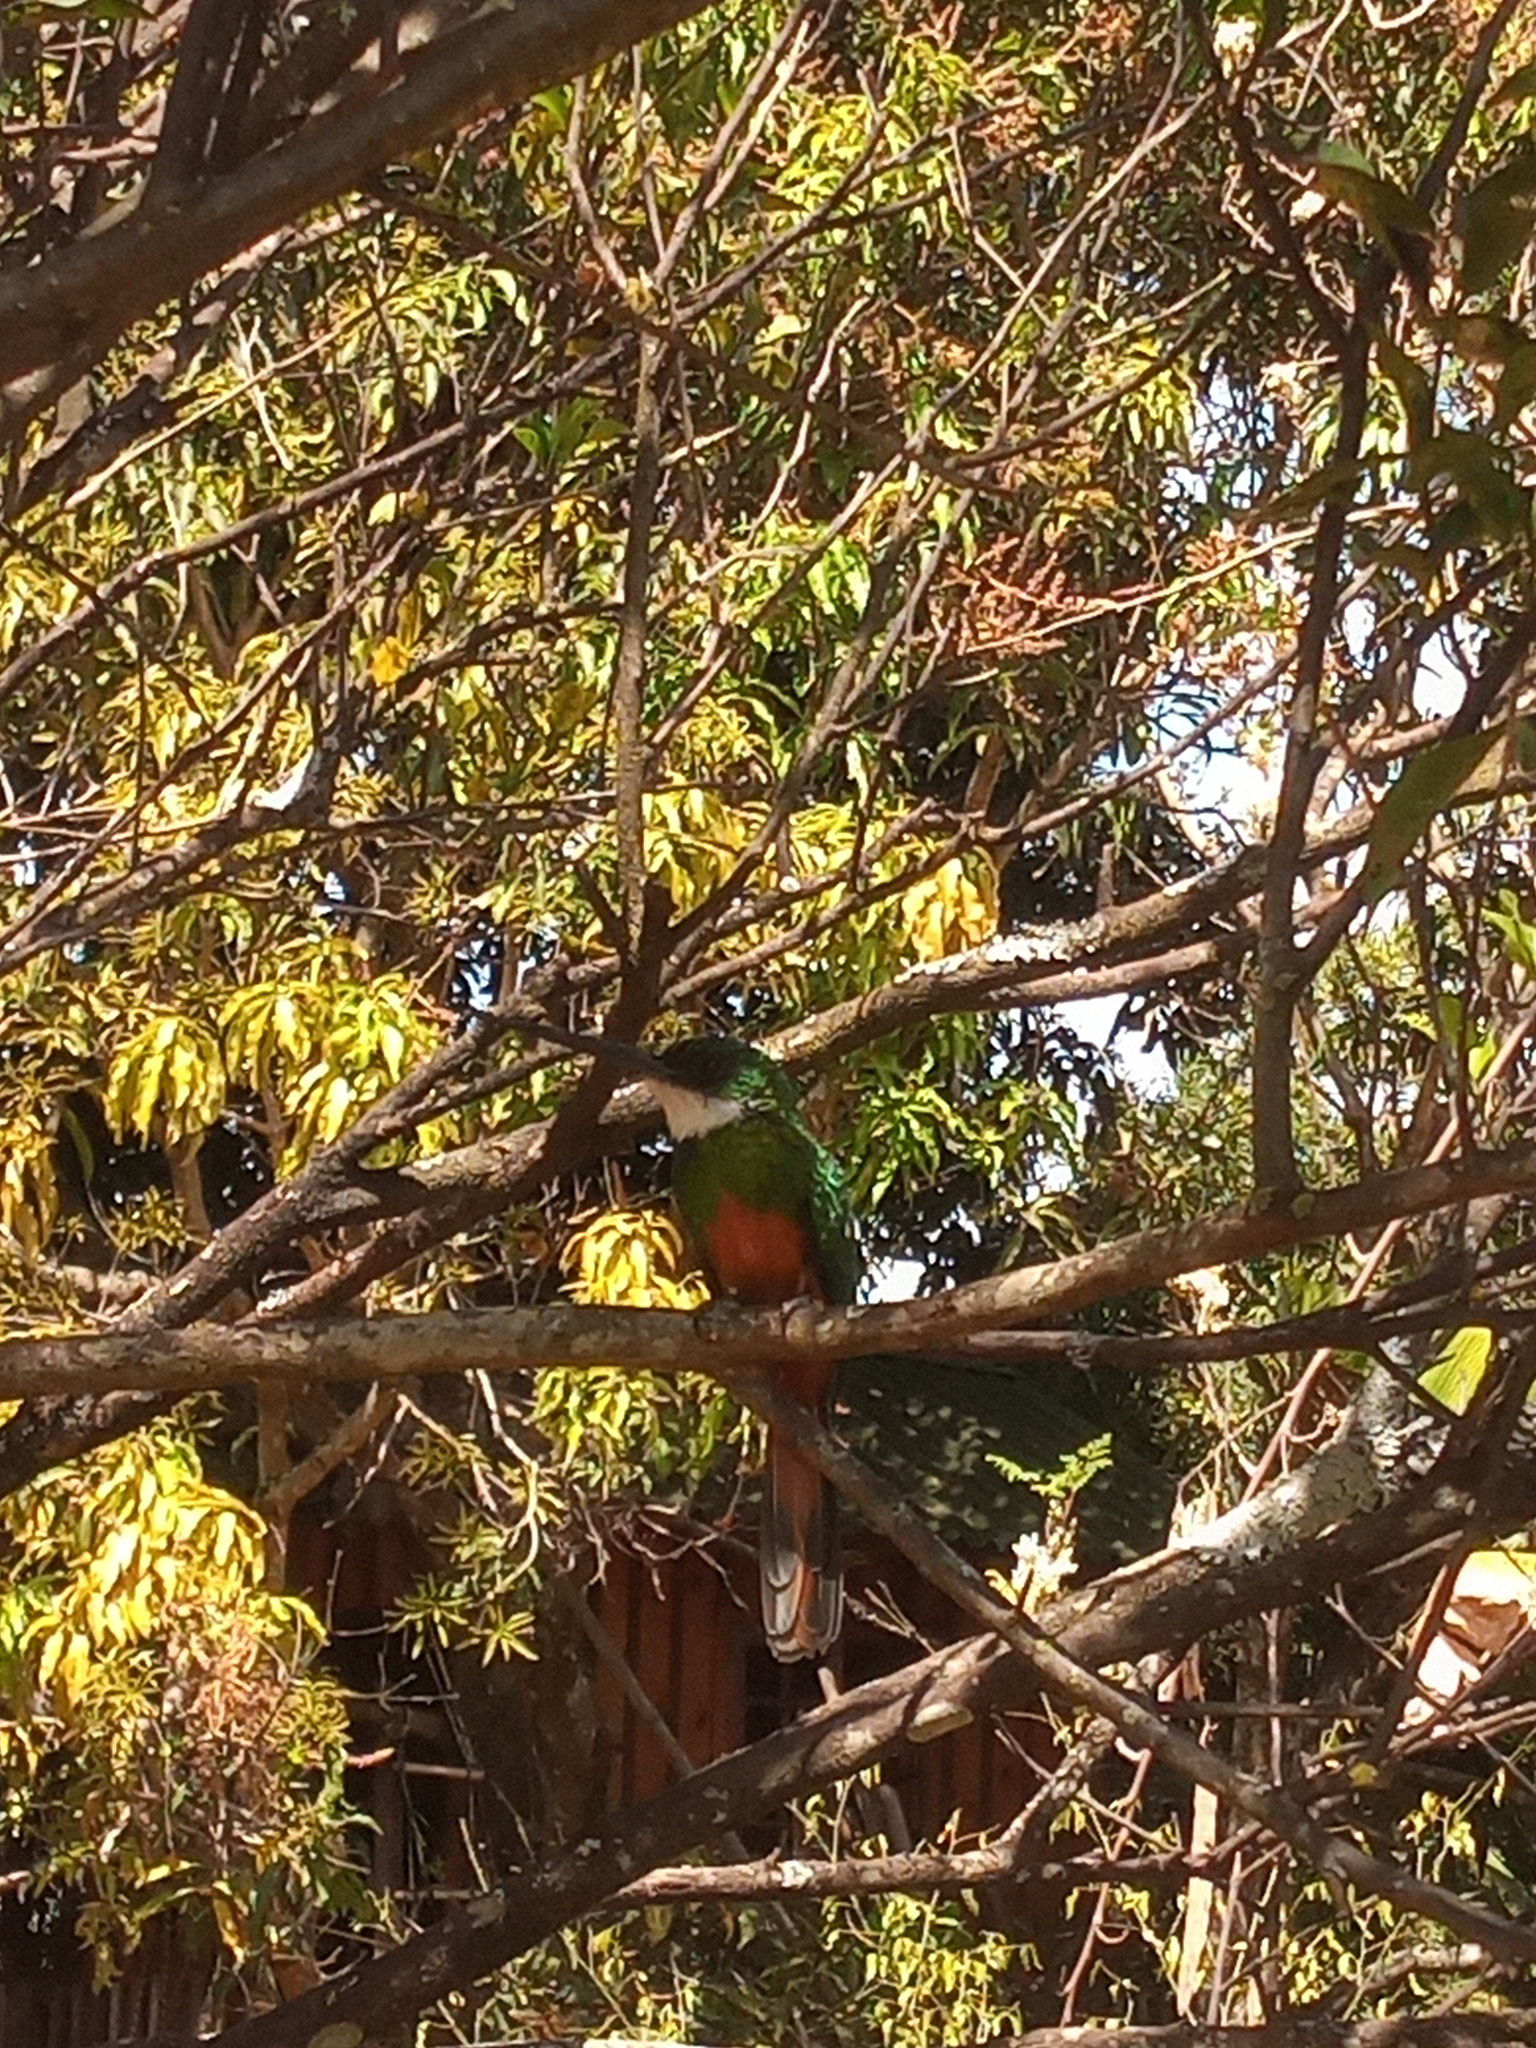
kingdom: Animalia
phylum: Chordata
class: Aves
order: Piciformes
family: Galbulidae
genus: Galbula
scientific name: Galbula ruficauda
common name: Rufous-tailed jacamar
